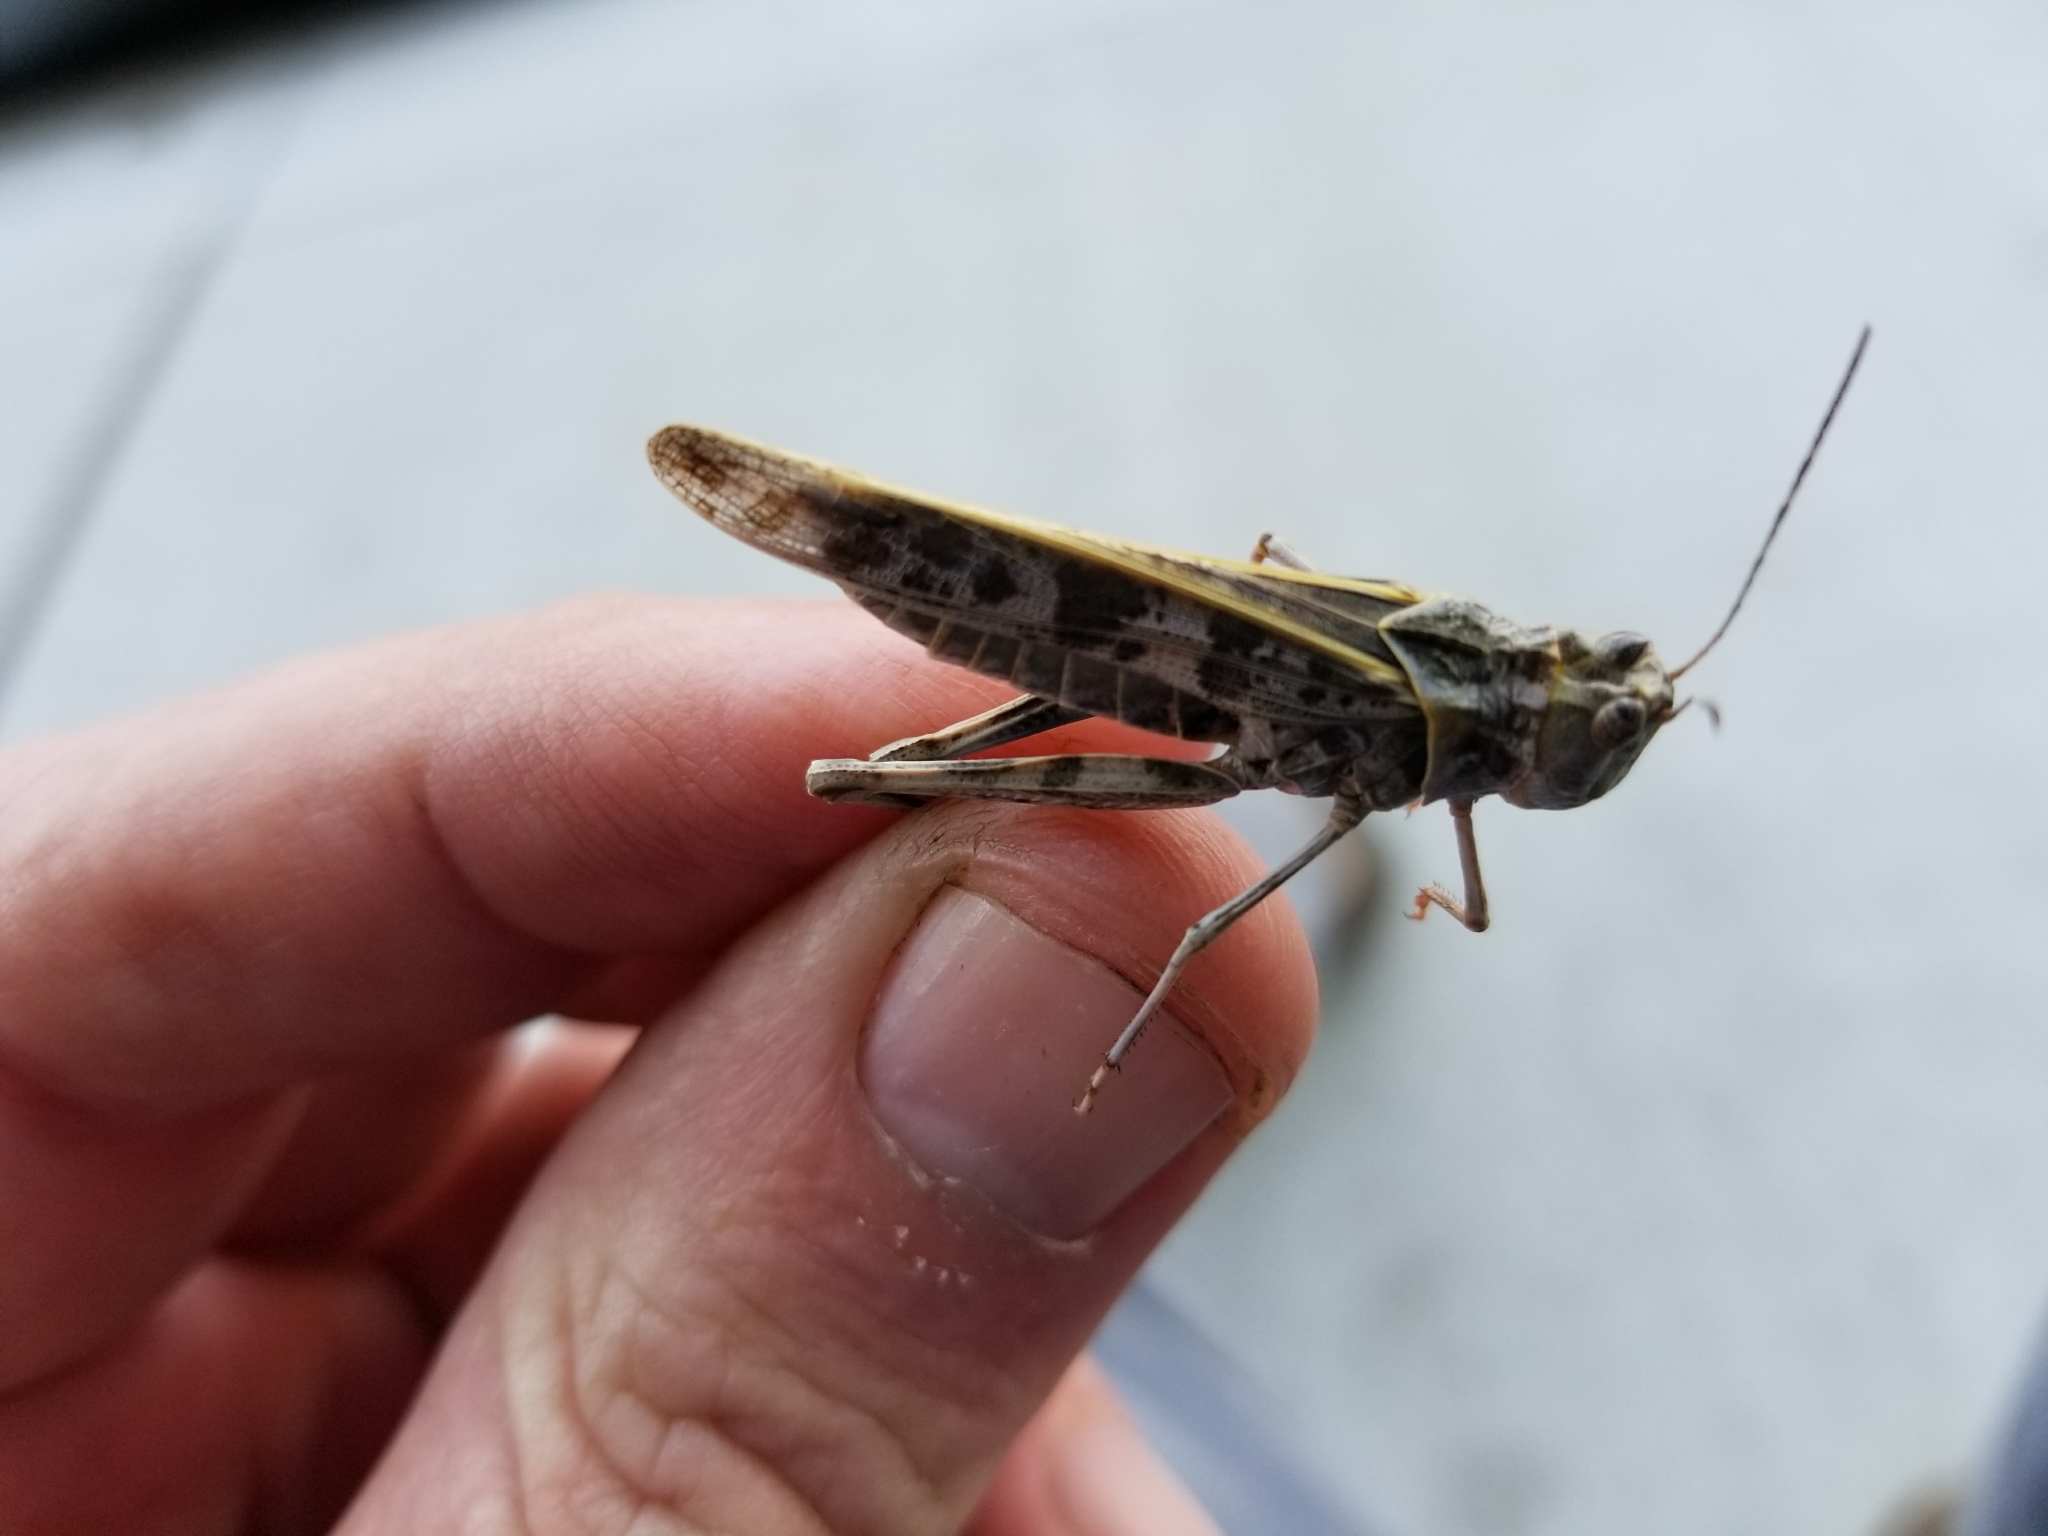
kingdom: Animalia
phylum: Arthropoda
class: Insecta
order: Orthoptera
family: Acrididae
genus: Metator
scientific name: Metator pardalinus
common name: Blue-legged grasshopper
